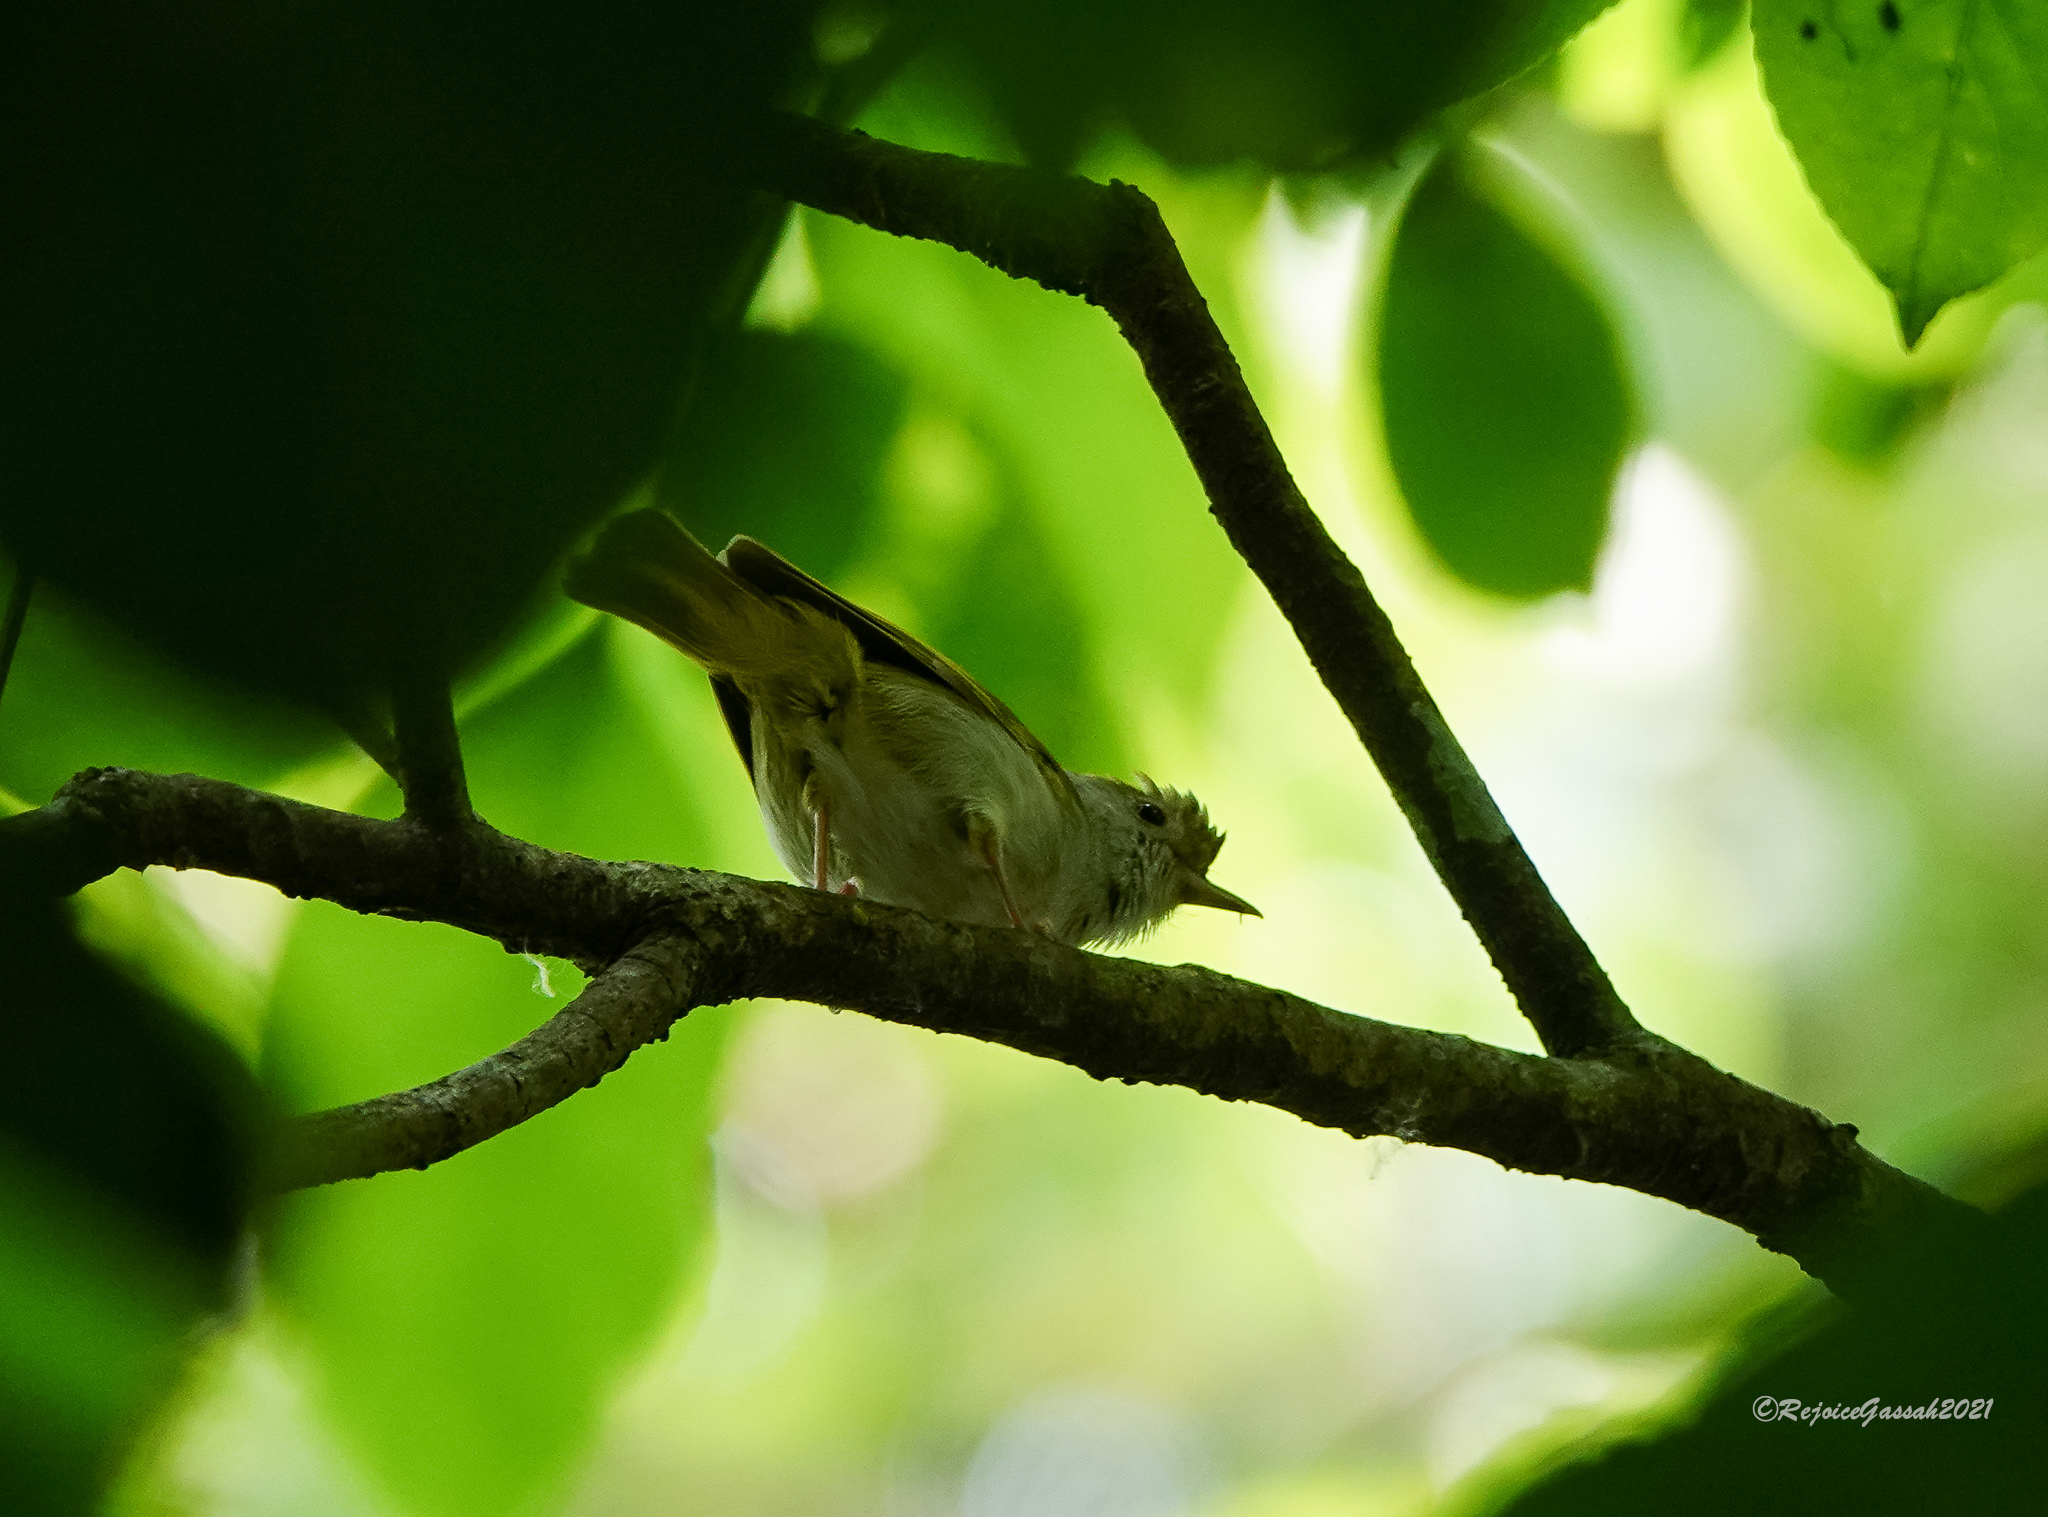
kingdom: Animalia
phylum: Chordata
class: Aves
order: Passeriformes
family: Vireonidae
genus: Erpornis
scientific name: Erpornis zantholeuca
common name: White-bellied erpornis
